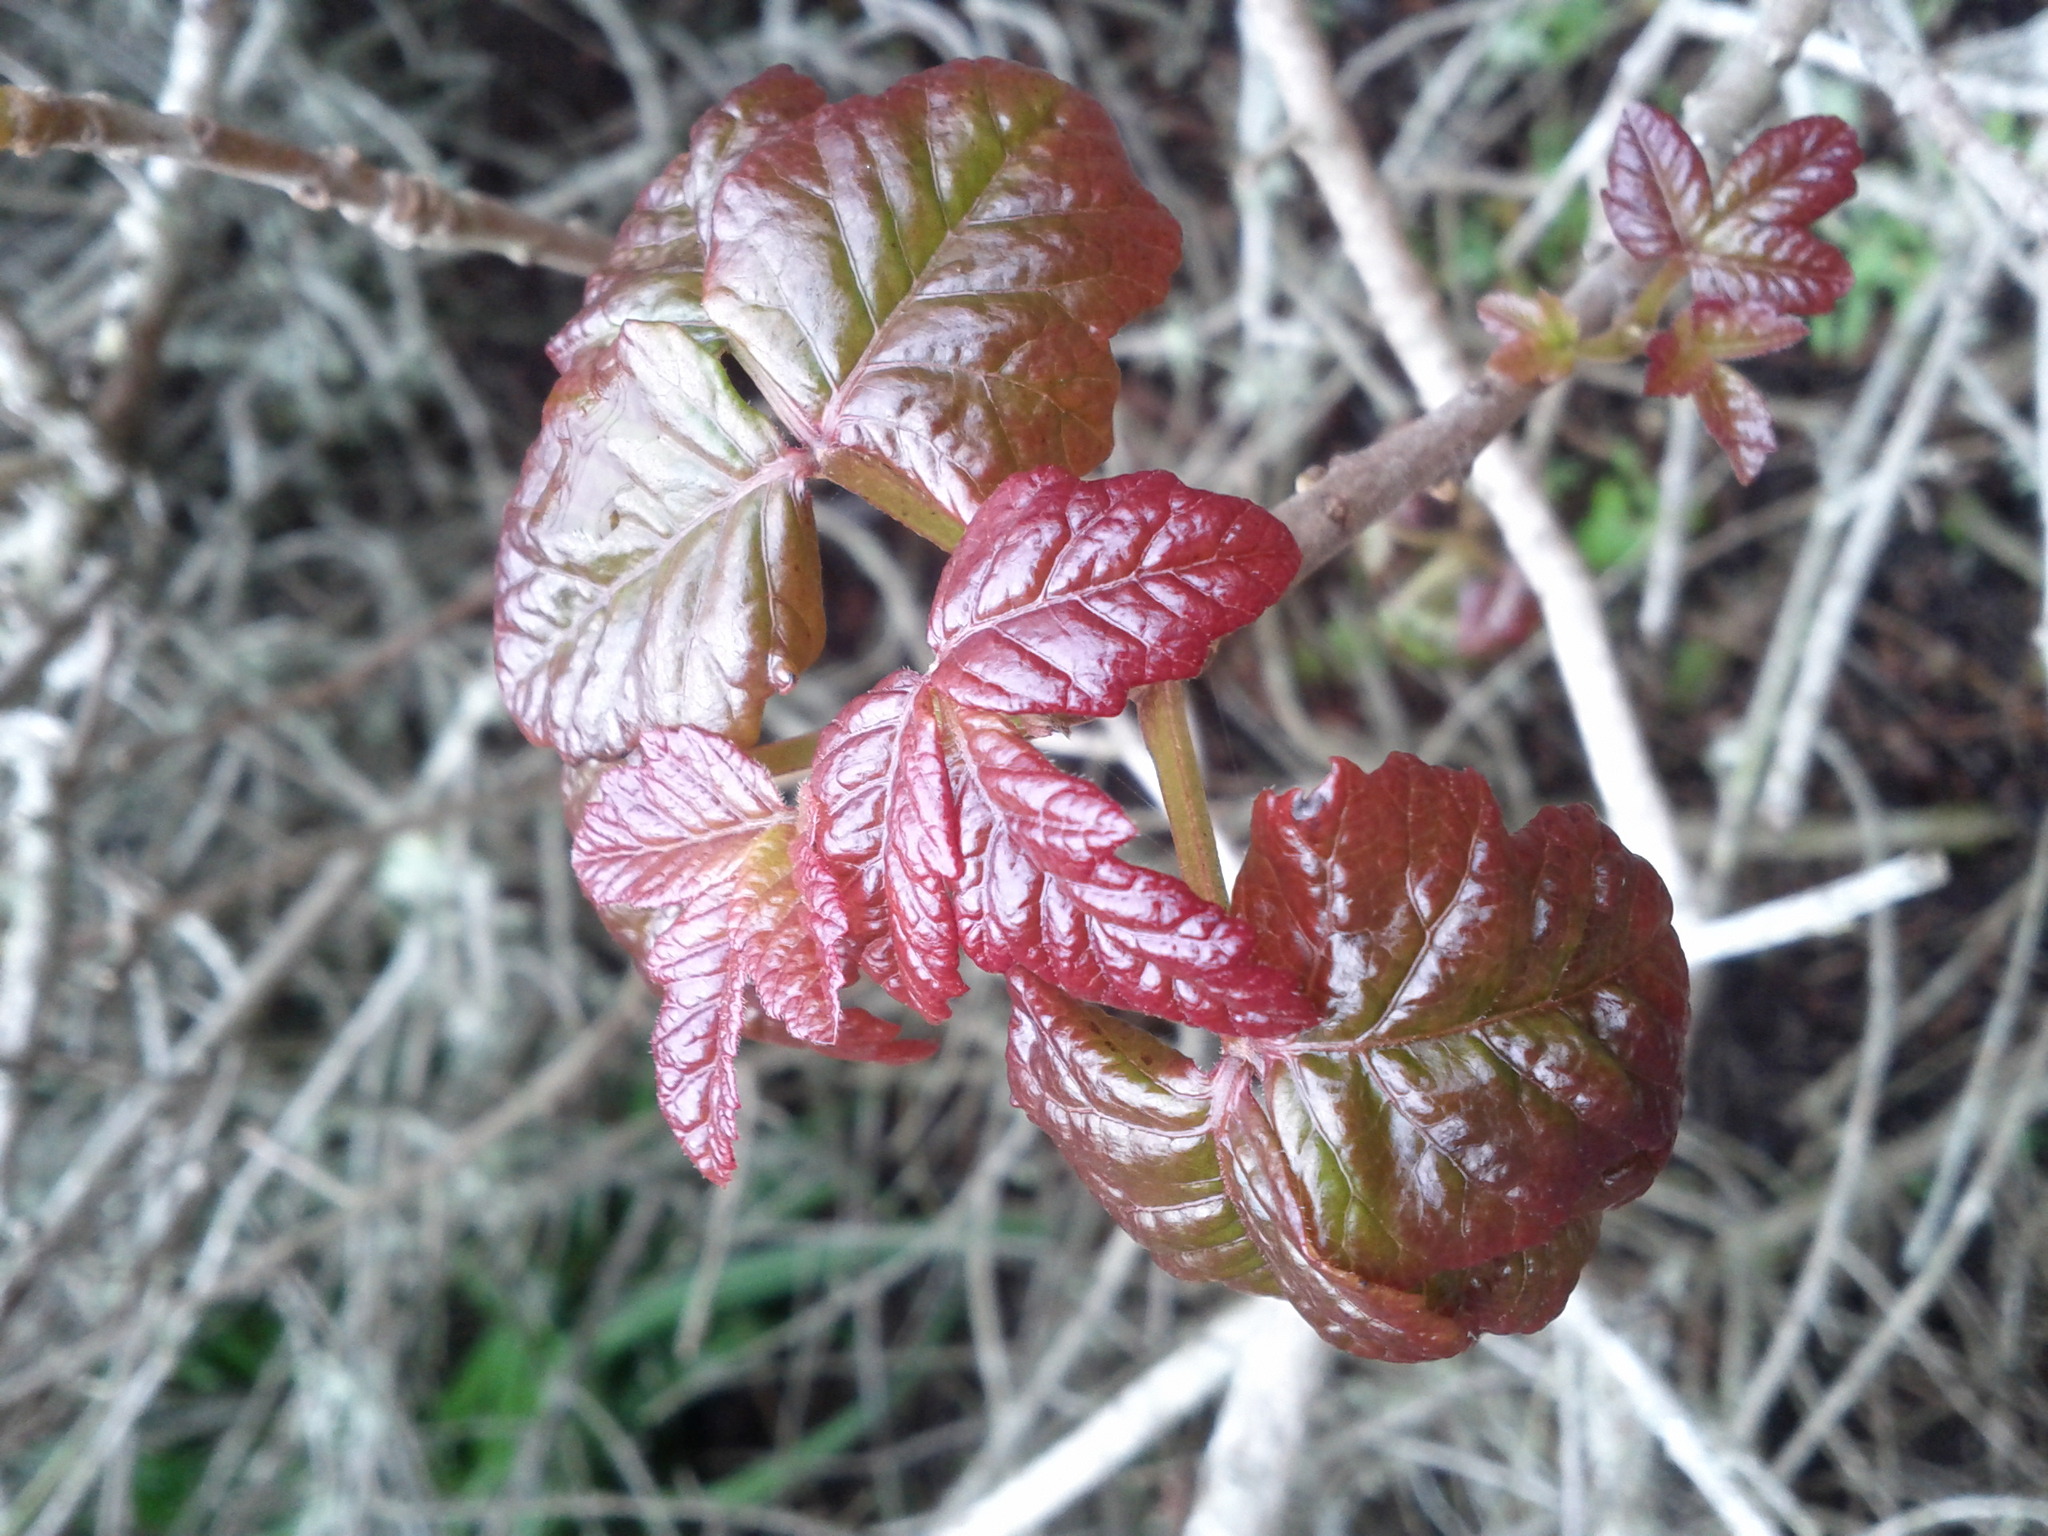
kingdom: Plantae
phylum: Tracheophyta
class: Magnoliopsida
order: Sapindales
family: Anacardiaceae
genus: Toxicodendron
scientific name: Toxicodendron diversilobum
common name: Pacific poison-oak
